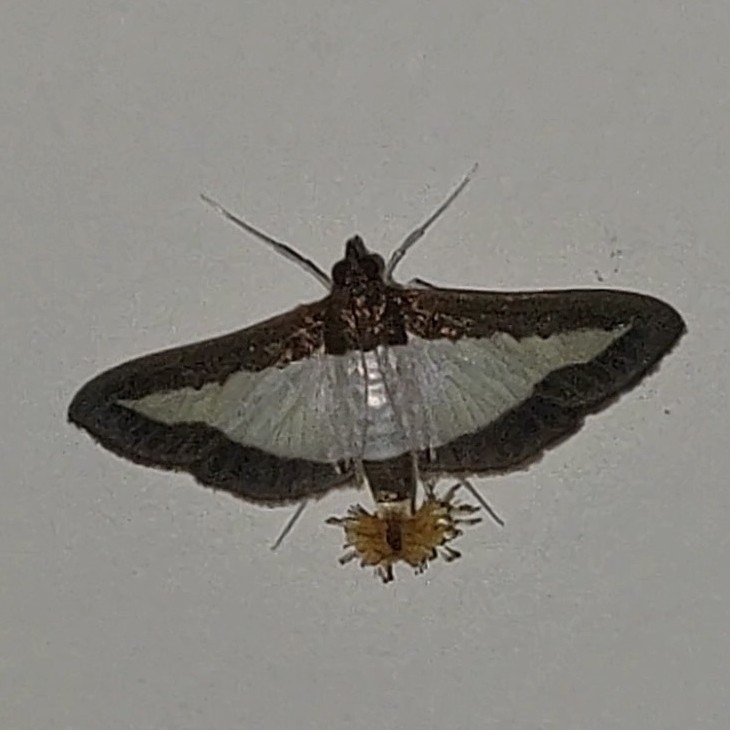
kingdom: Animalia
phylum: Arthropoda
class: Insecta
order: Lepidoptera
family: Crambidae
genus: Diaphania
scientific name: Diaphania indica
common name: Cucumber moth
